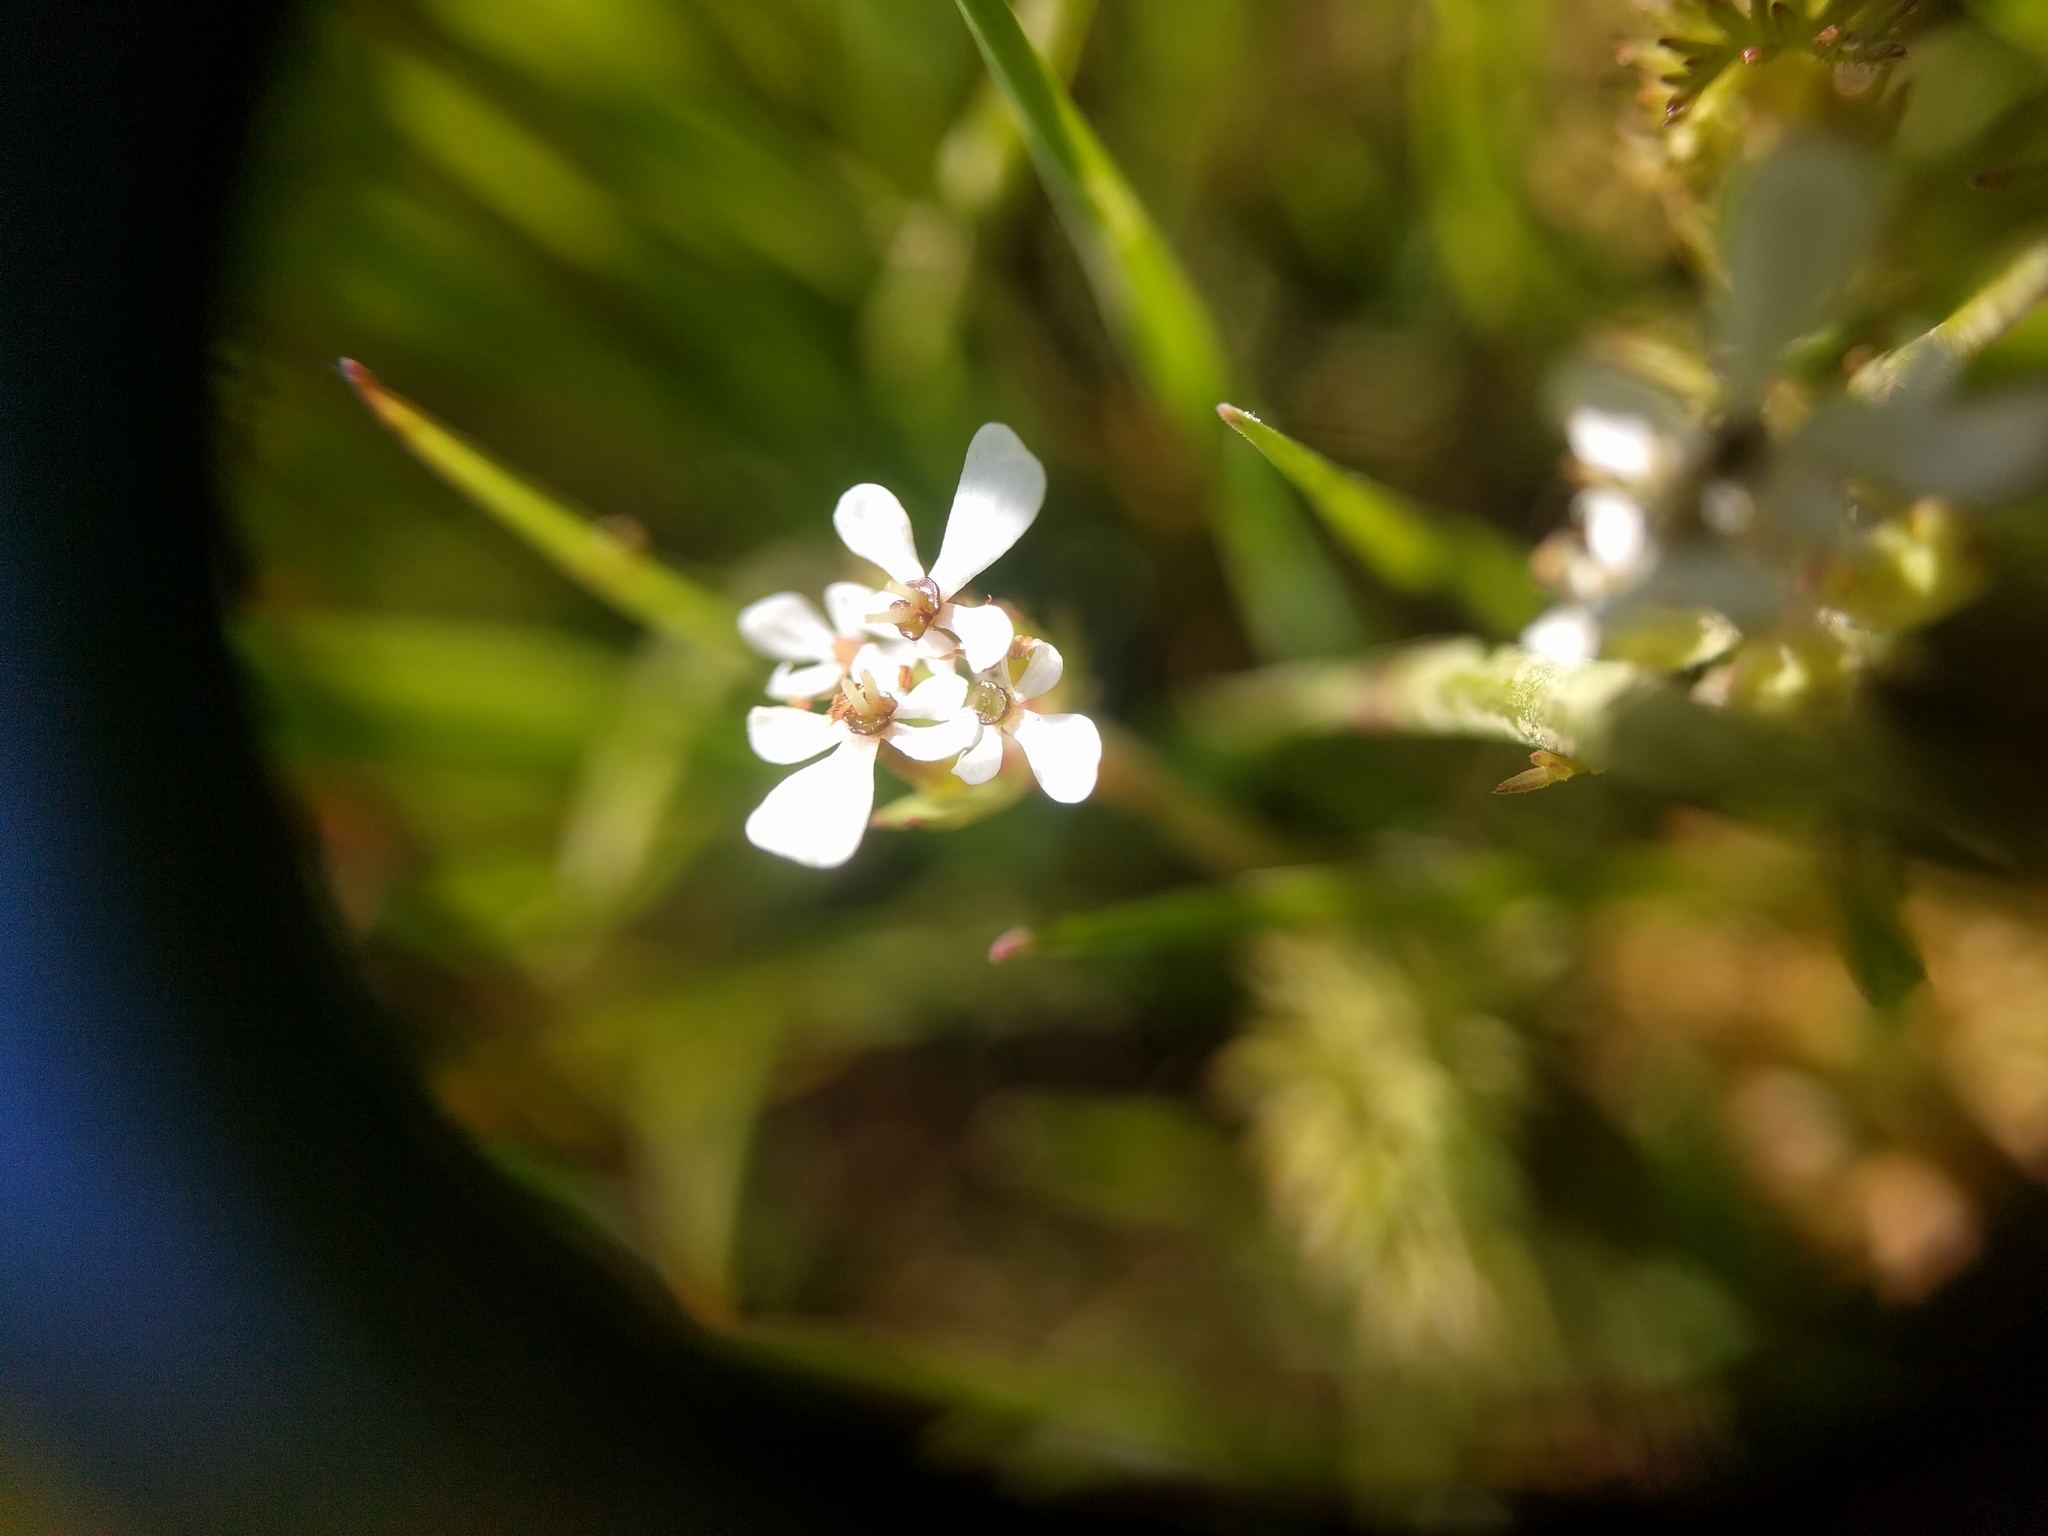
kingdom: Plantae
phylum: Tracheophyta
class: Magnoliopsida
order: Apiales
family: Apiaceae
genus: Scandix
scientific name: Scandix pecten-veneris
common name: Shepherd's-needle
